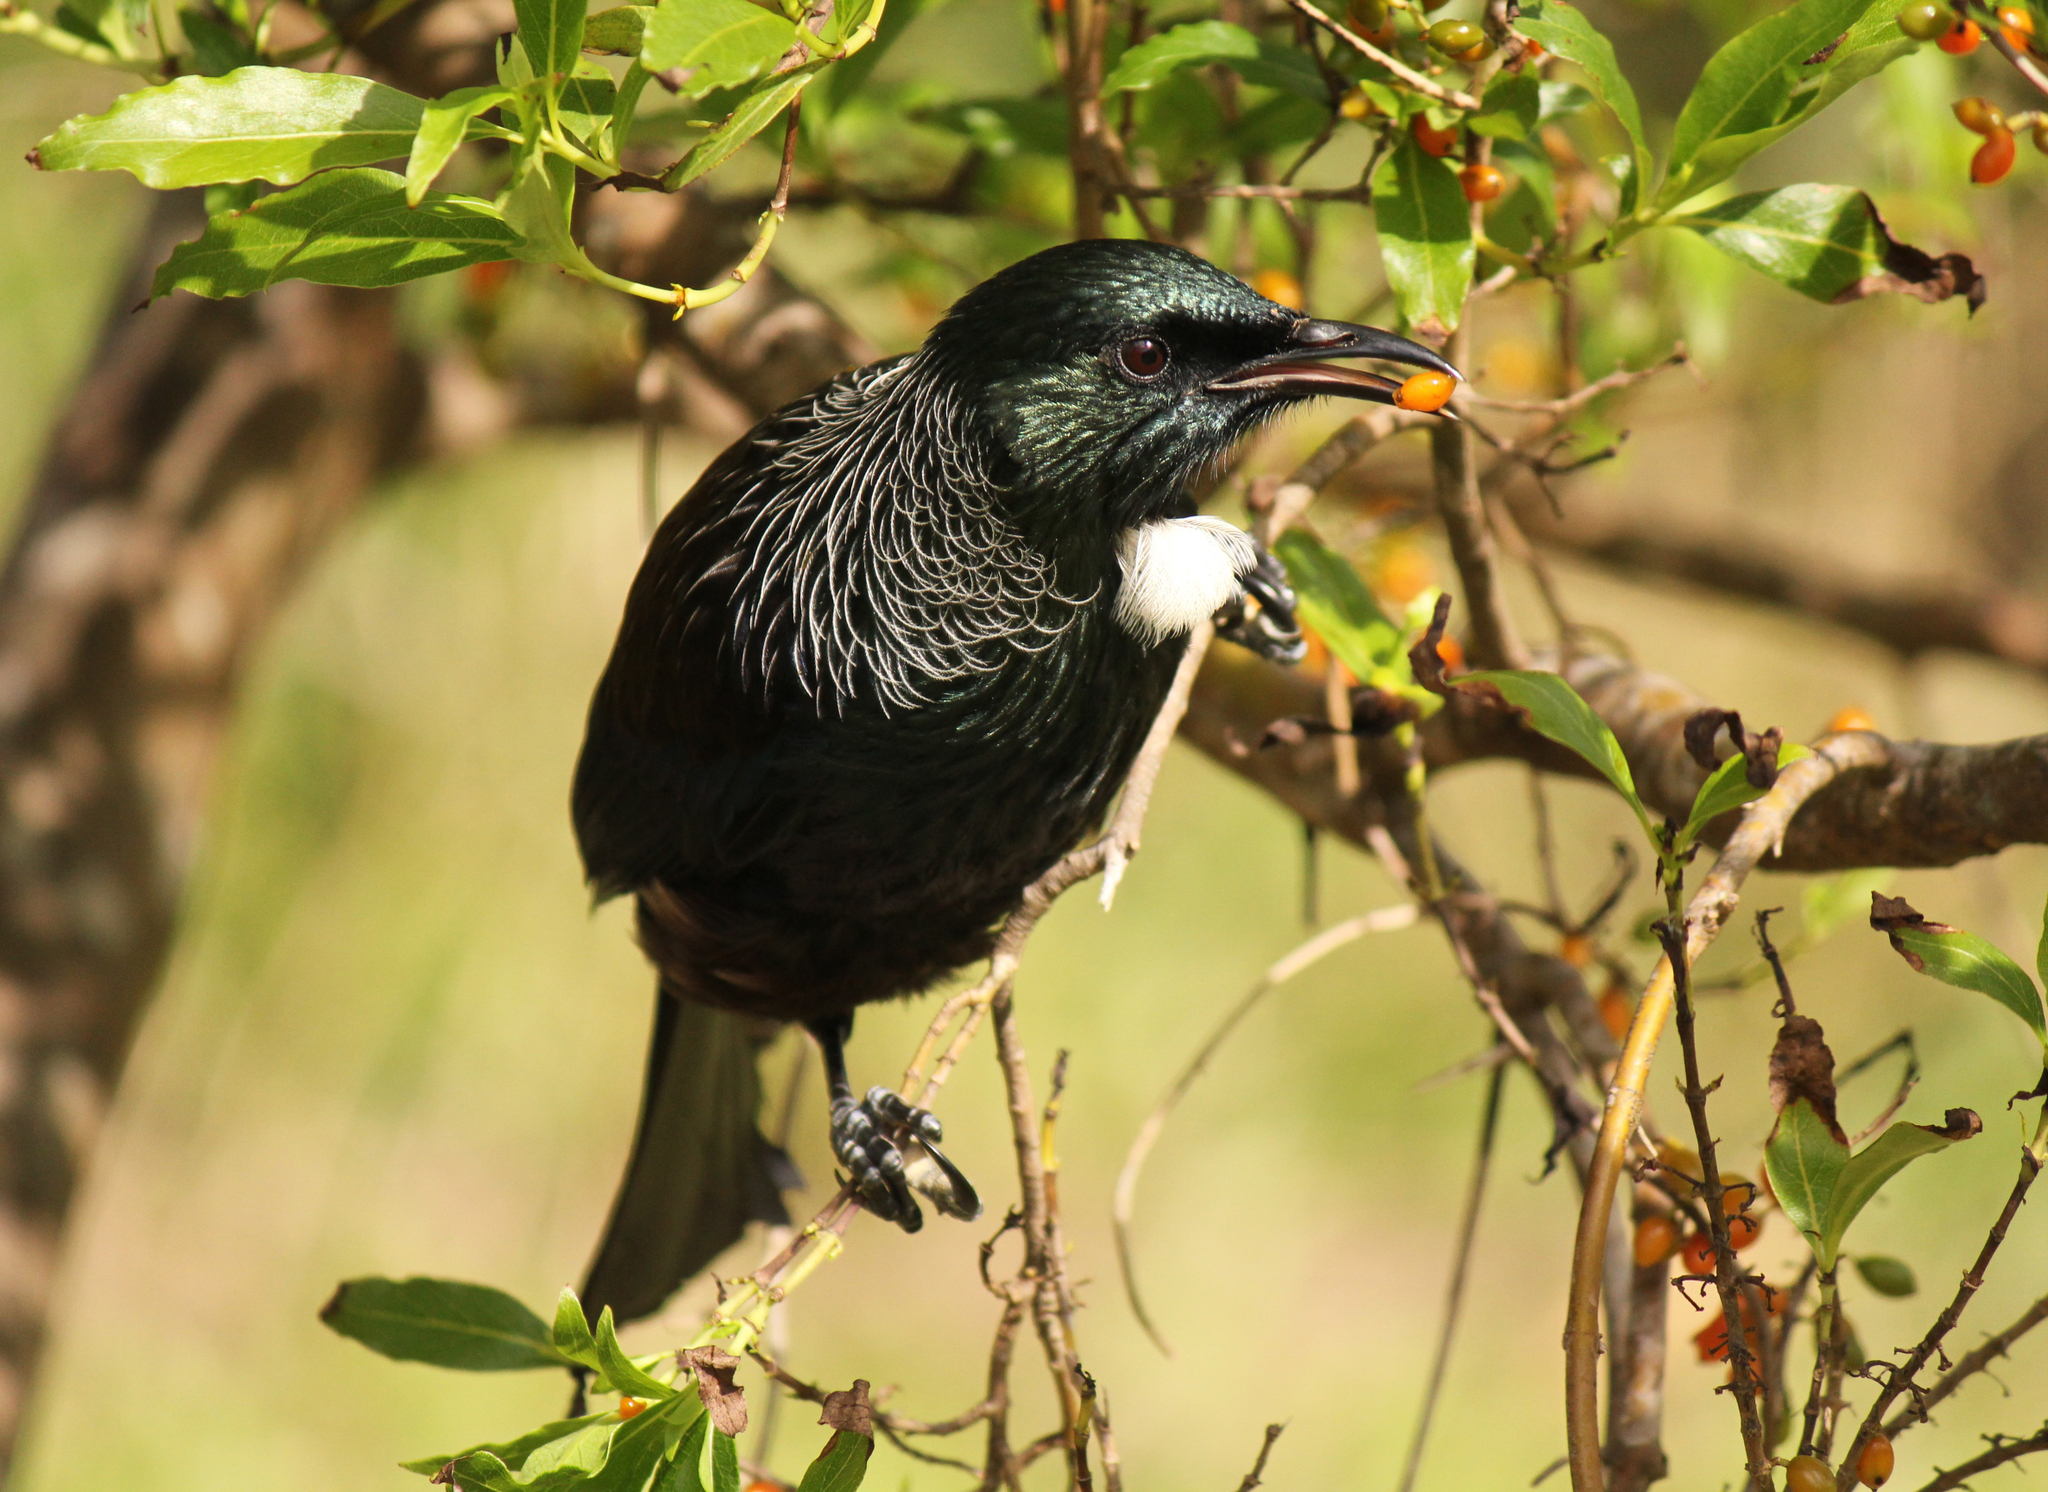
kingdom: Animalia
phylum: Chordata
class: Aves
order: Passeriformes
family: Meliphagidae
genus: Prosthemadera
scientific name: Prosthemadera novaeseelandiae
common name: Tui
